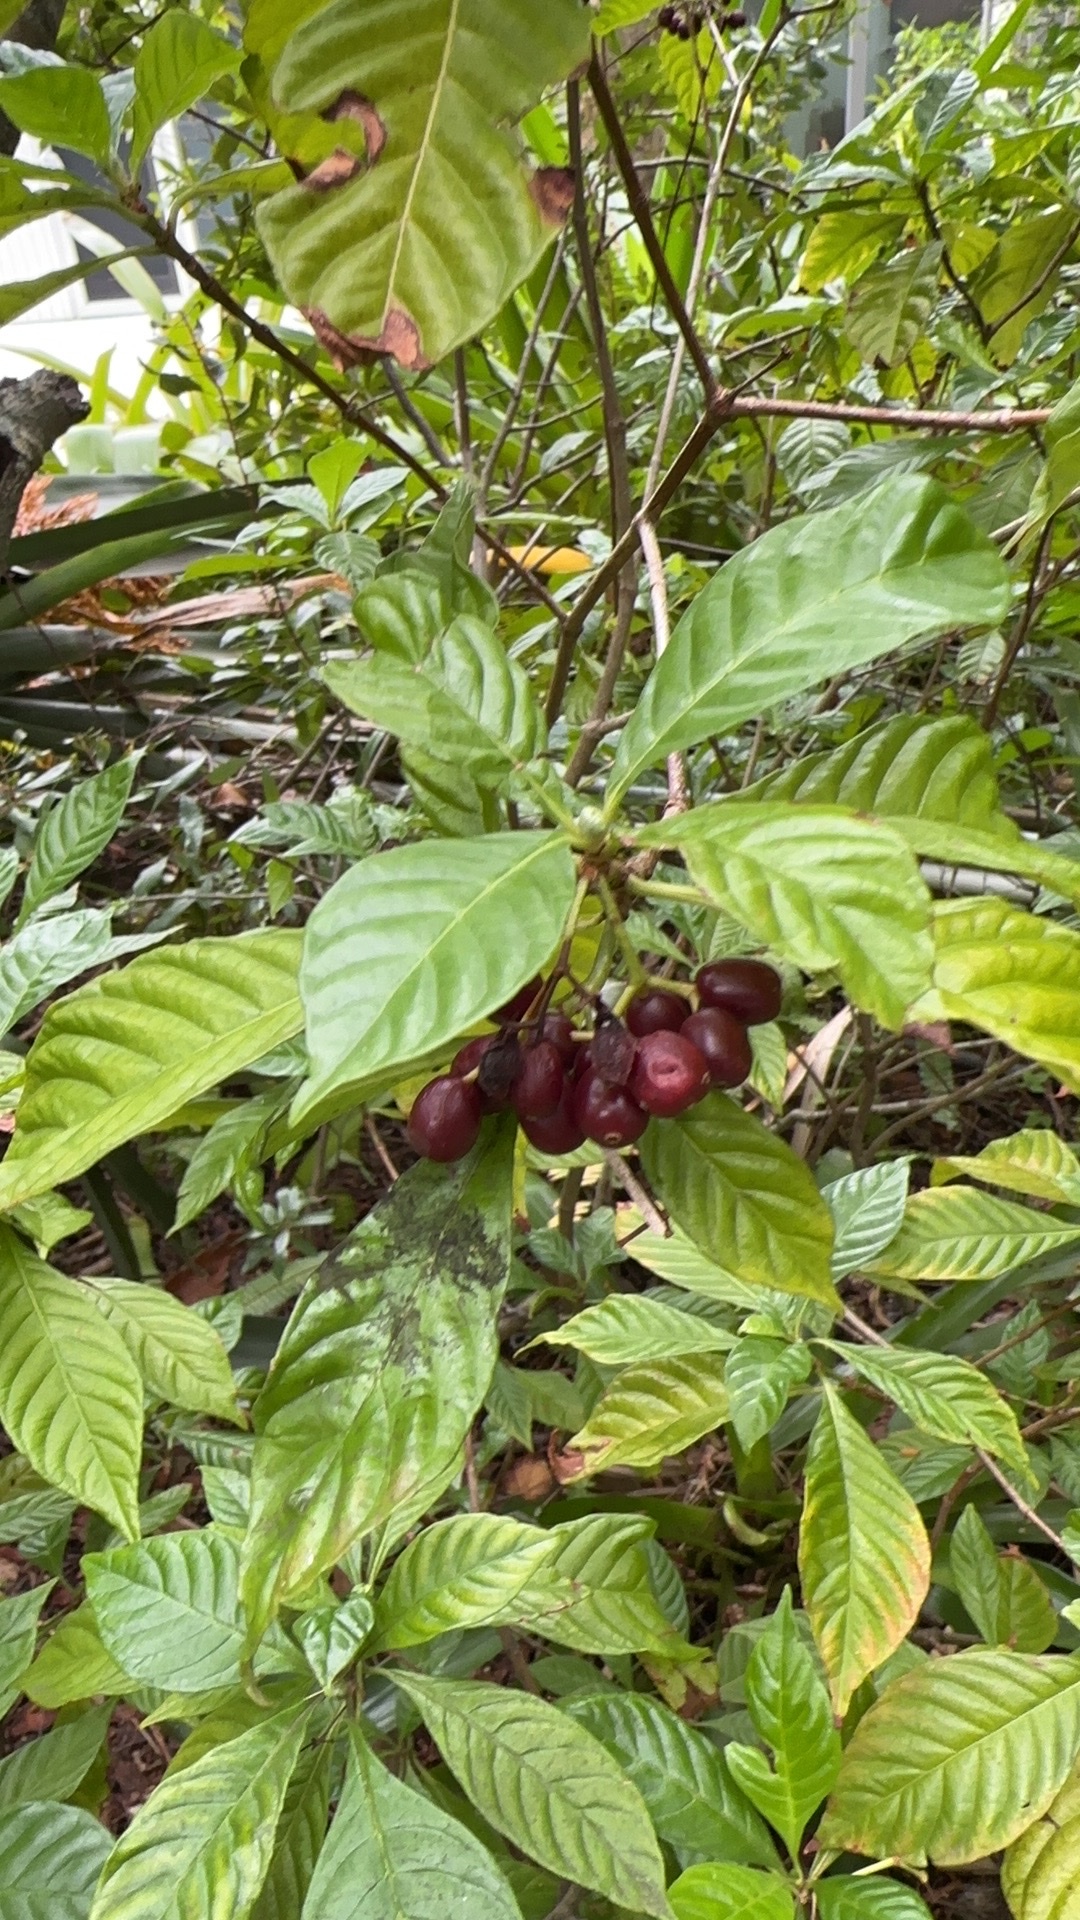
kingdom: Plantae
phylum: Tracheophyta
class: Magnoliopsida
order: Gentianales
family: Rubiaceae
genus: Psychotria
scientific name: Psychotria nervosa
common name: Bastard cankerberry
